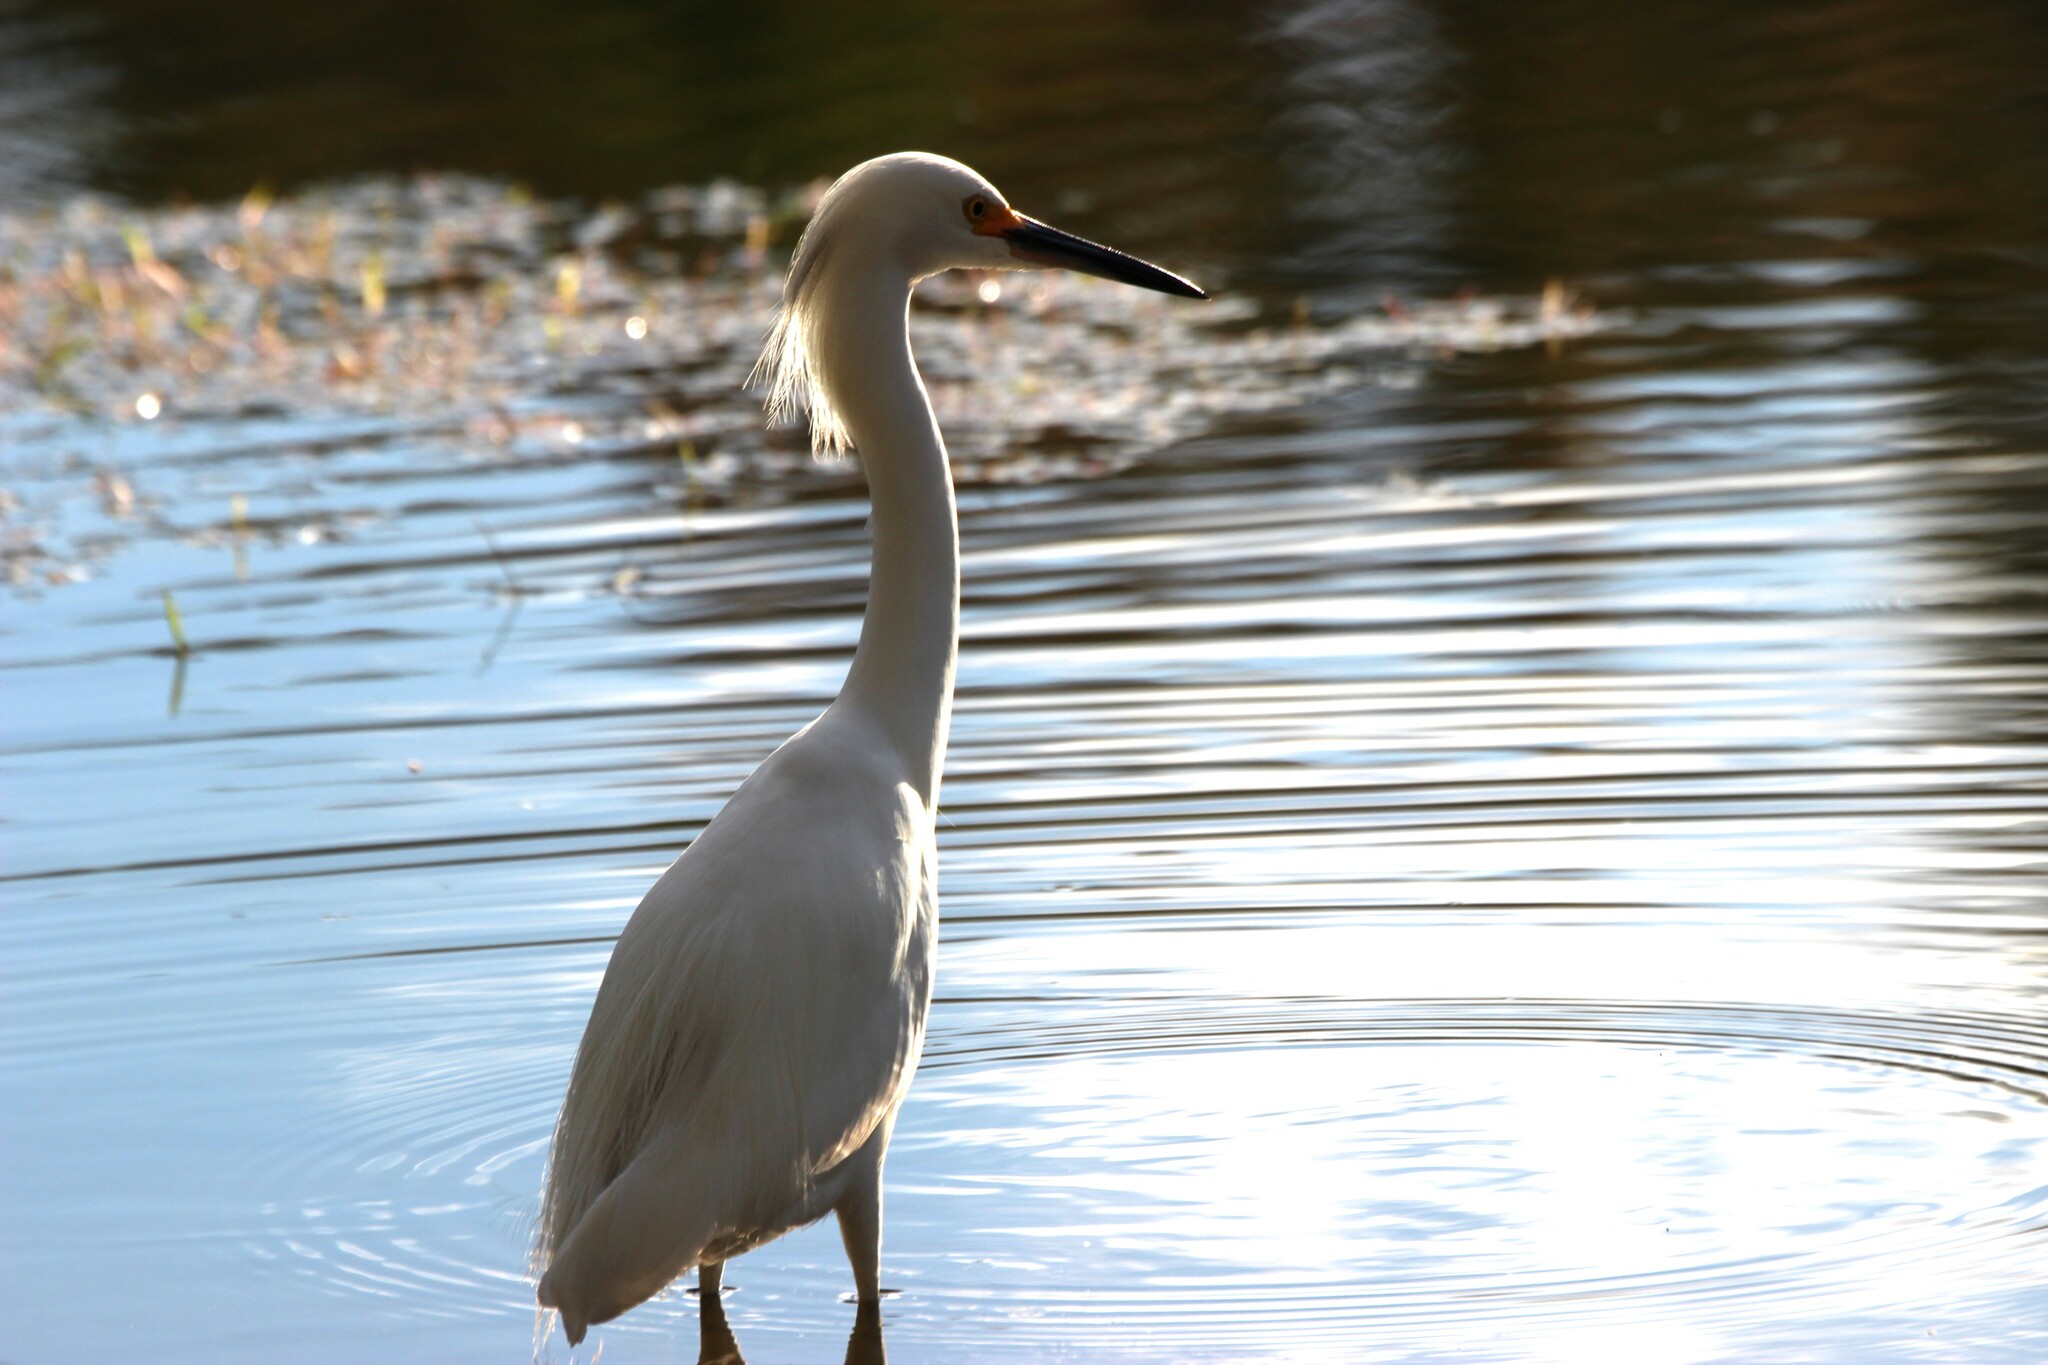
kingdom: Animalia
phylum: Chordata
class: Aves
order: Pelecaniformes
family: Ardeidae
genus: Egretta
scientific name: Egretta thula
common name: Snowy egret
